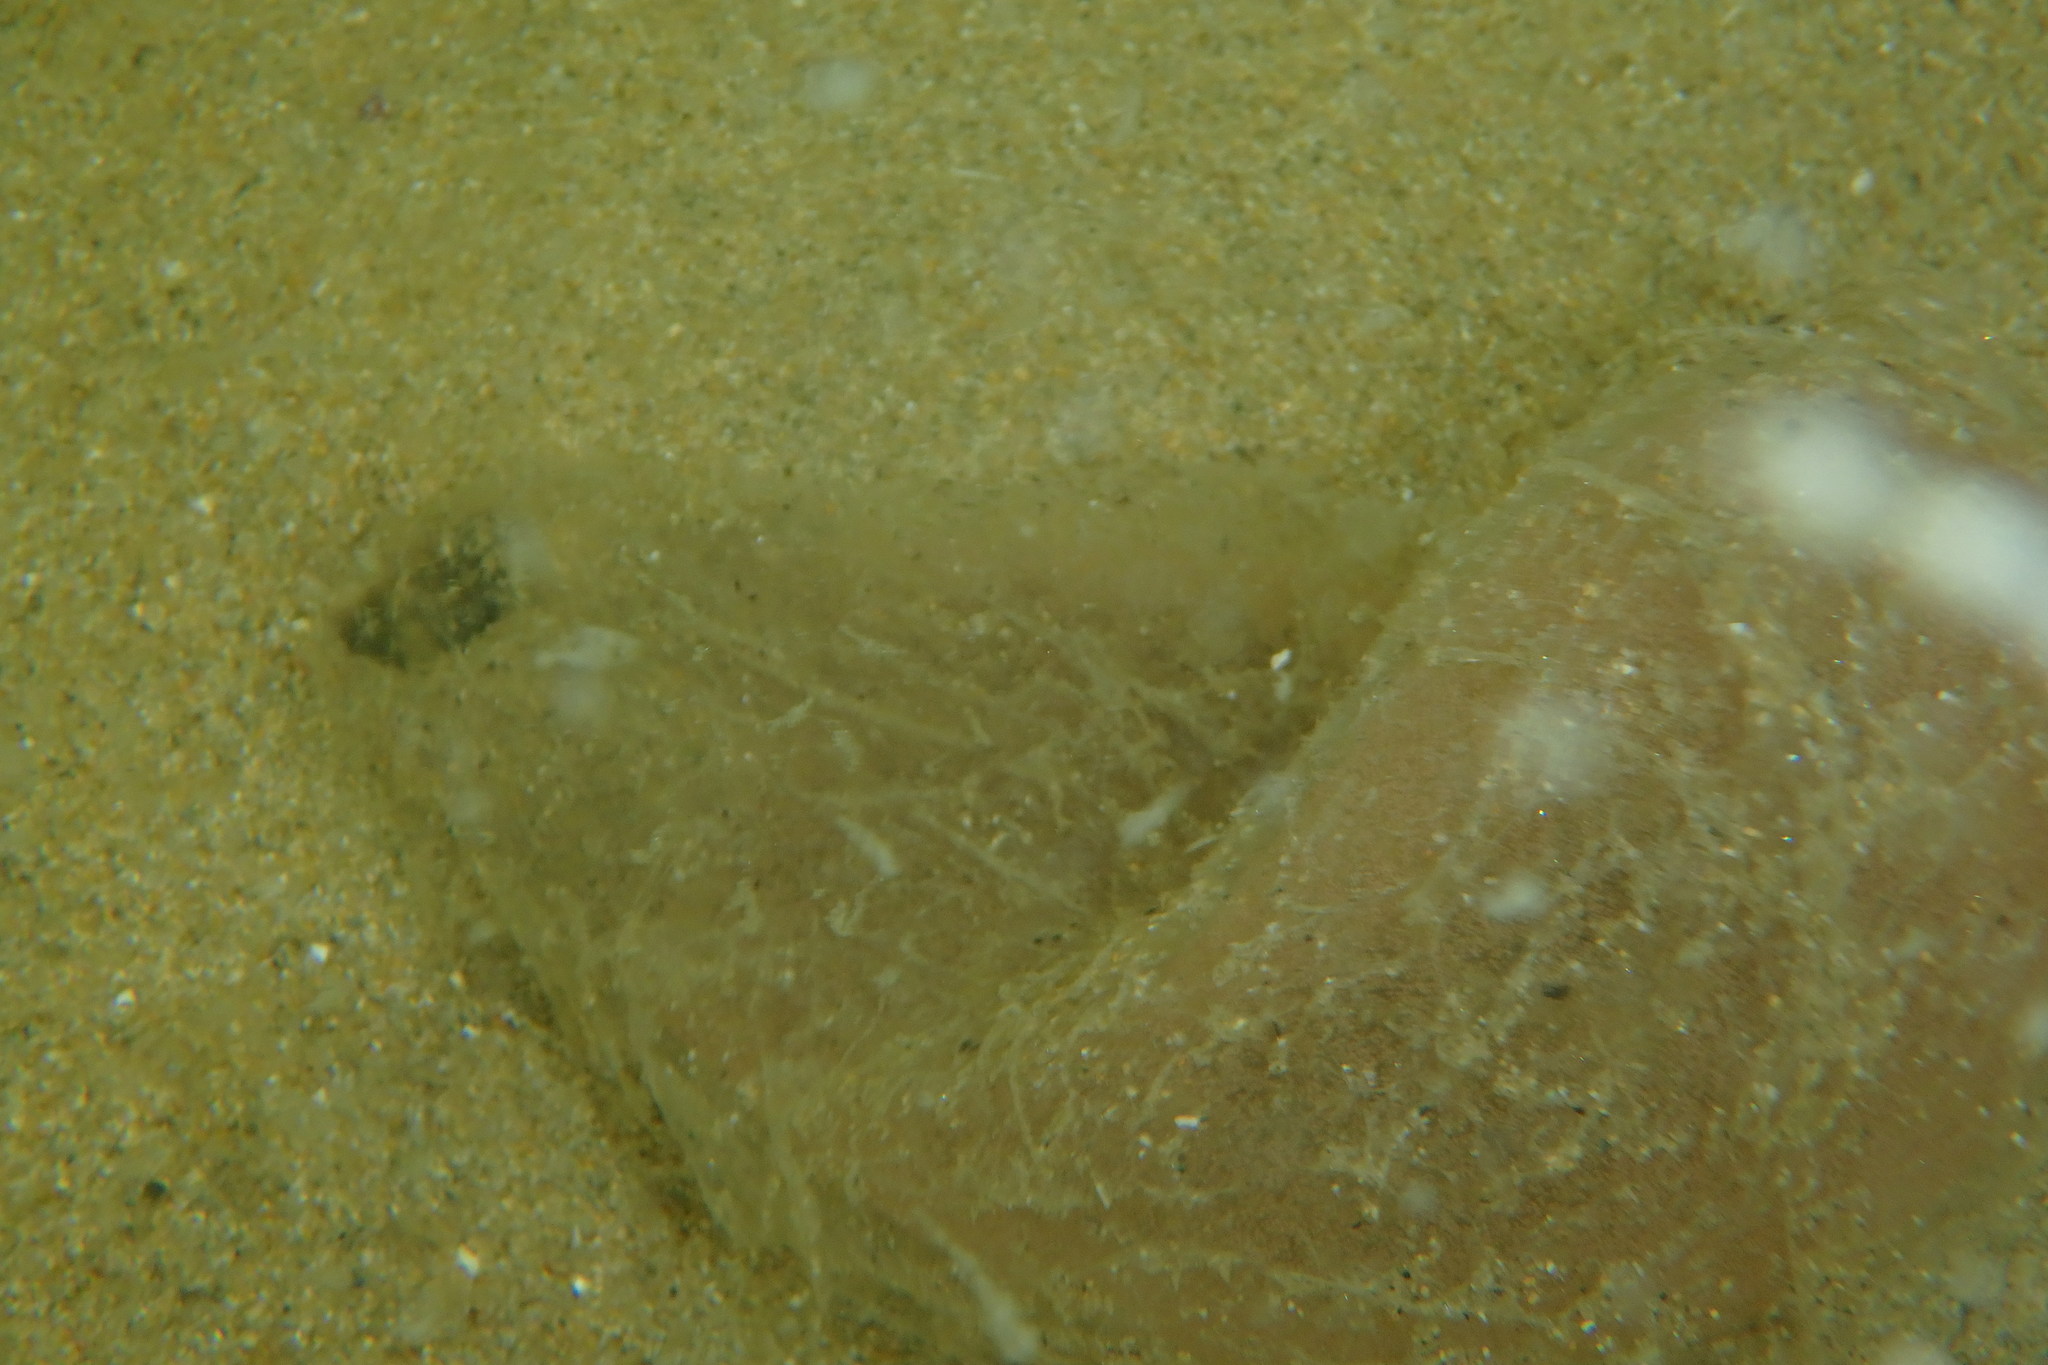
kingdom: Animalia
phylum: Annelida
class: Polychaeta
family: Arenicolidae
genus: Arenicola
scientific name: Arenicola brasiliensis
